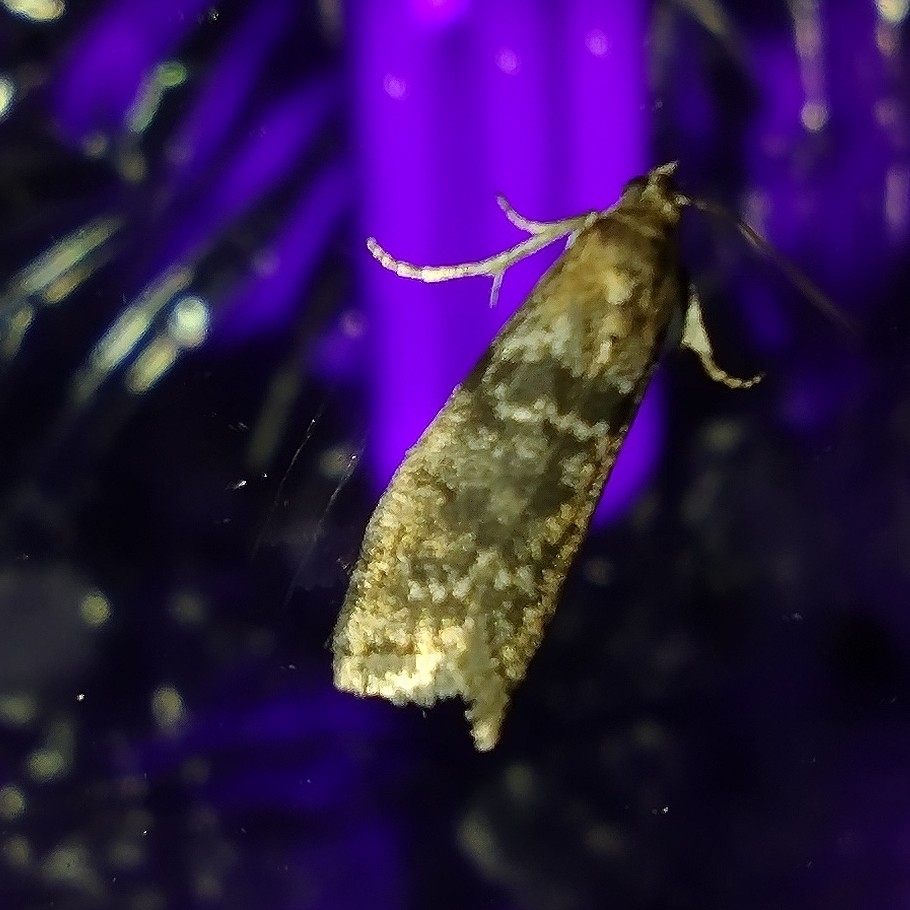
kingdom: Animalia
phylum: Arthropoda
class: Insecta
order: Lepidoptera
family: Pyralidae
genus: Sciota
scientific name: Sciota hostilis
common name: Scarce aspen knot-horn
